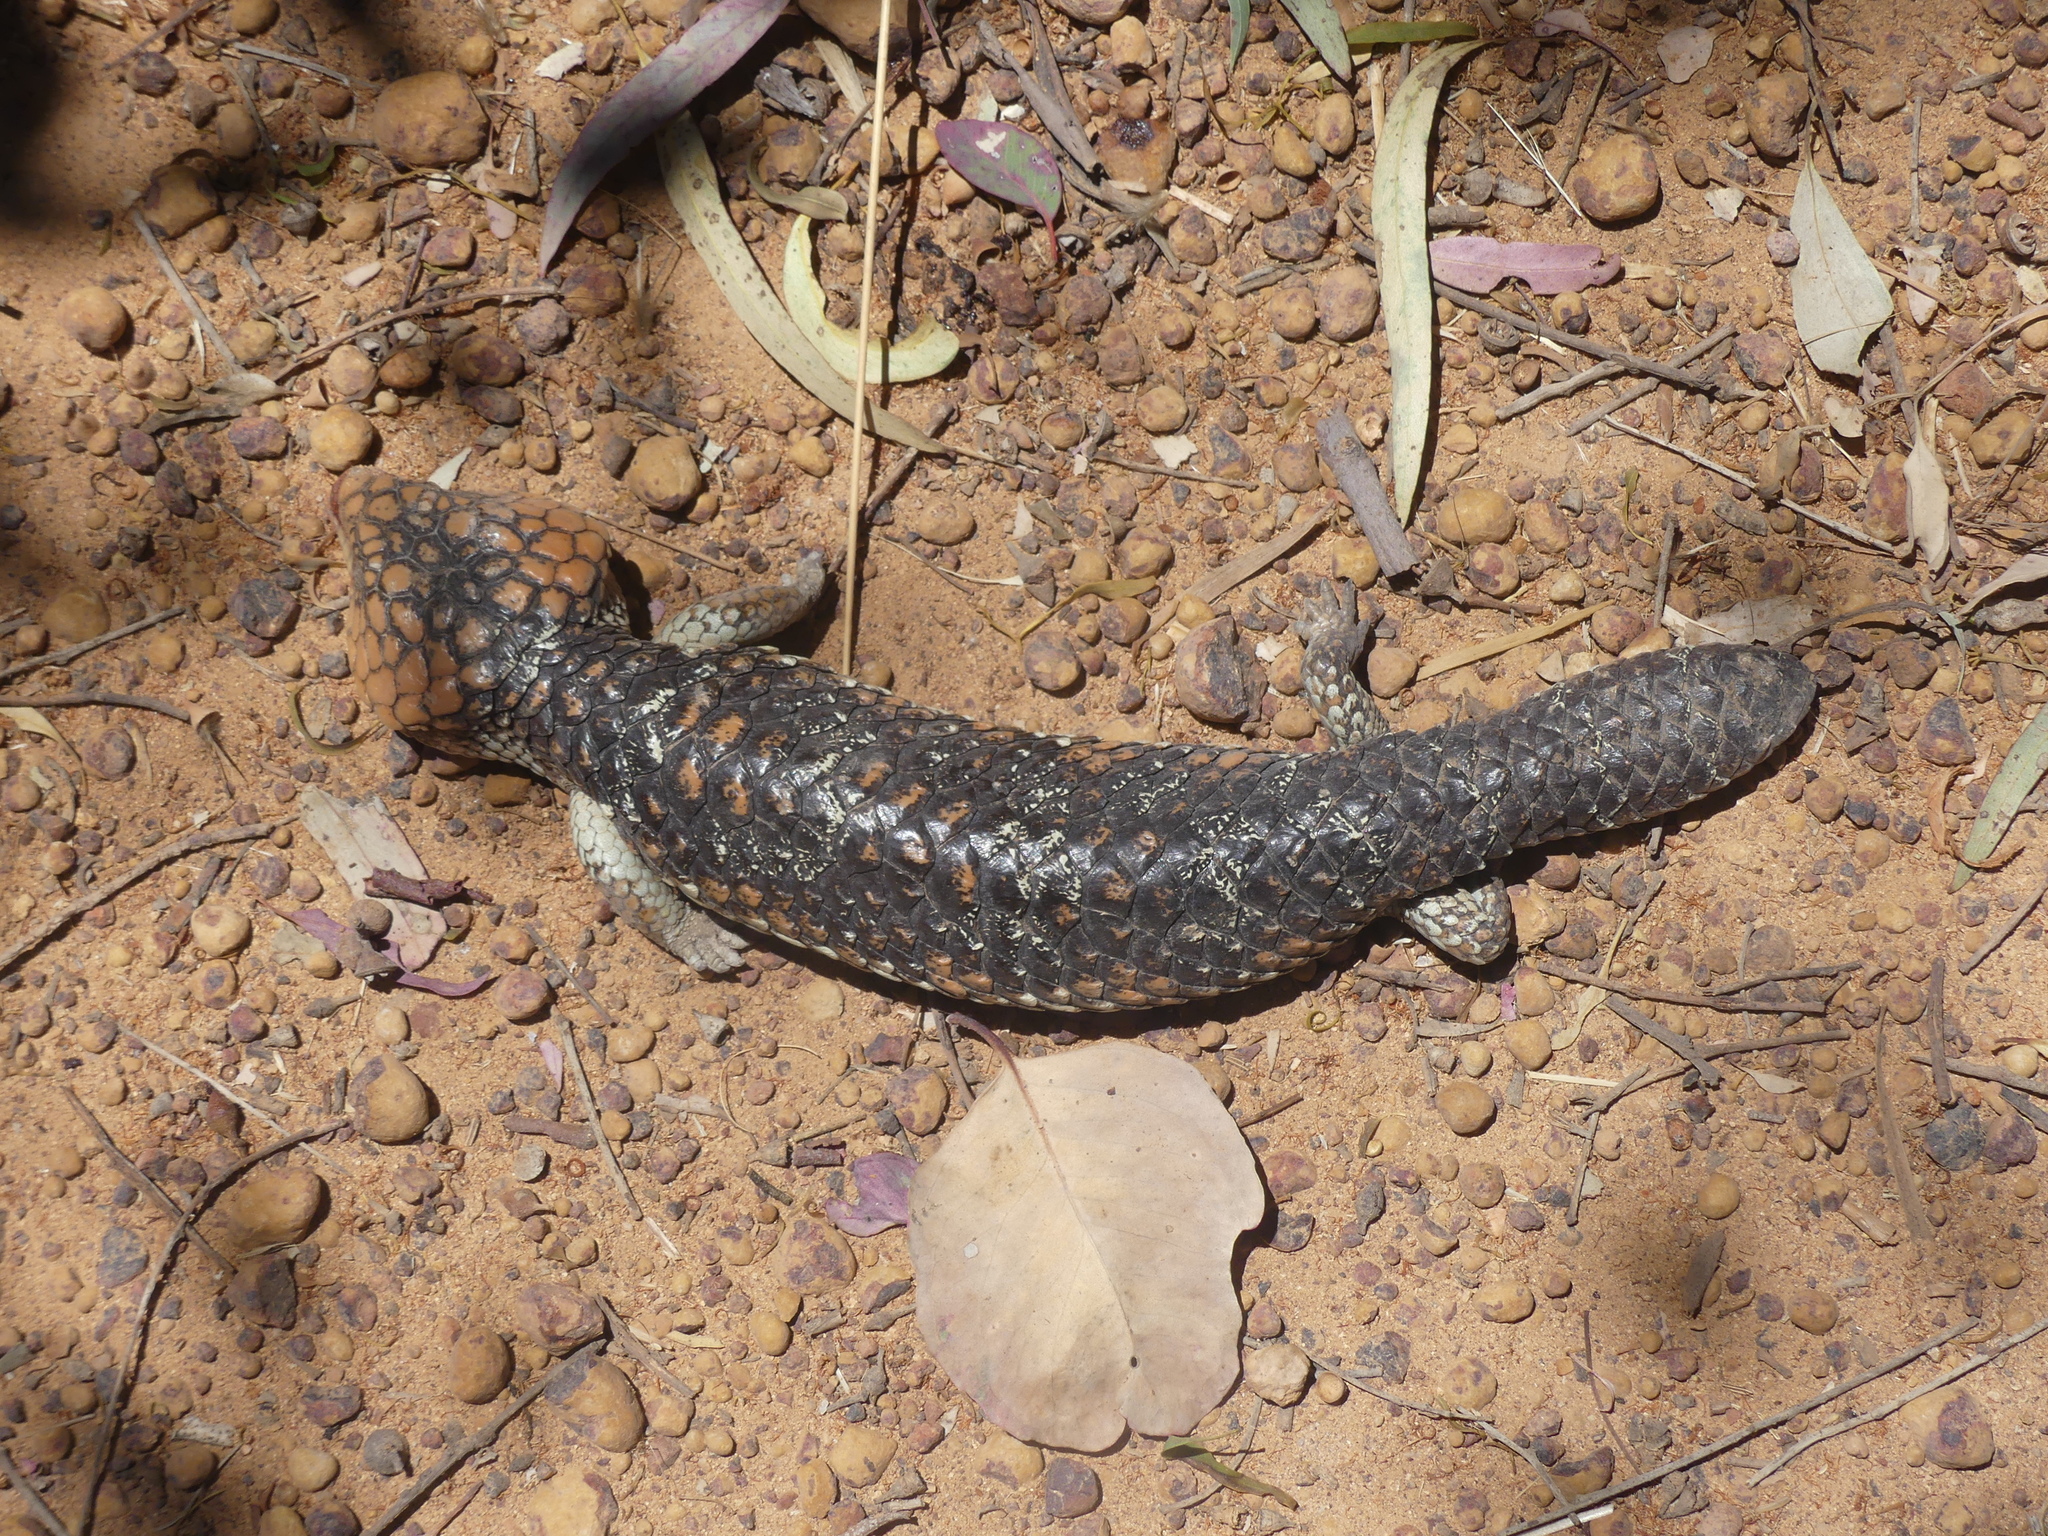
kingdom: Animalia
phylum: Chordata
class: Squamata
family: Scincidae
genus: Tiliqua
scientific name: Tiliqua rugosa
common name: Pinecone lizard
